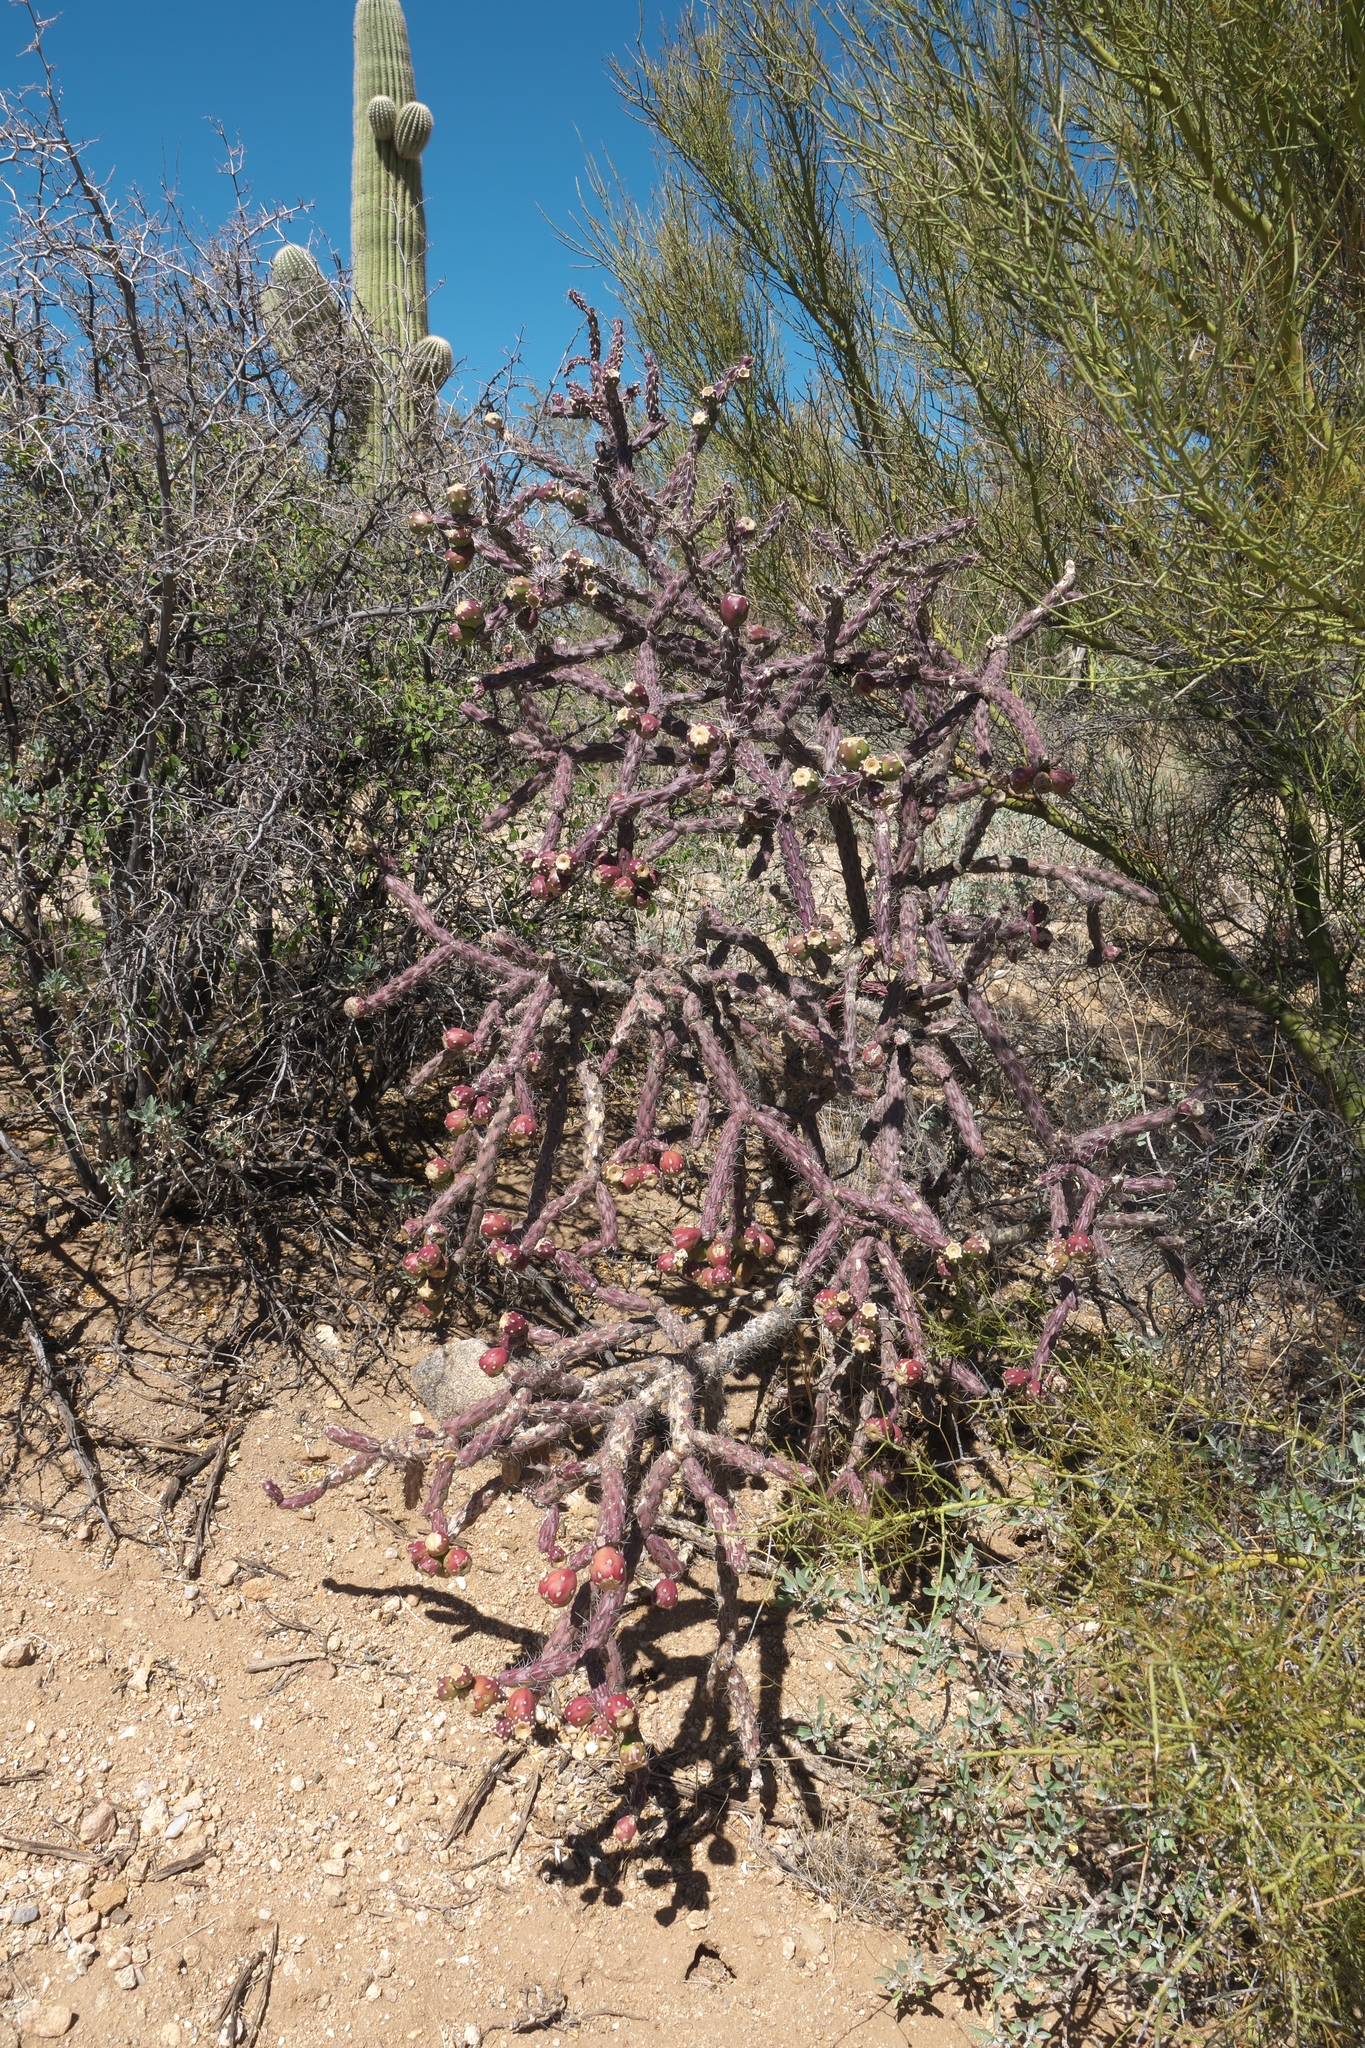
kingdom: Plantae
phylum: Tracheophyta
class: Magnoliopsida
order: Caryophyllales
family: Cactaceae
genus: Cylindropuntia
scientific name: Cylindropuntia imbricata
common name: Candelabrum cactus
